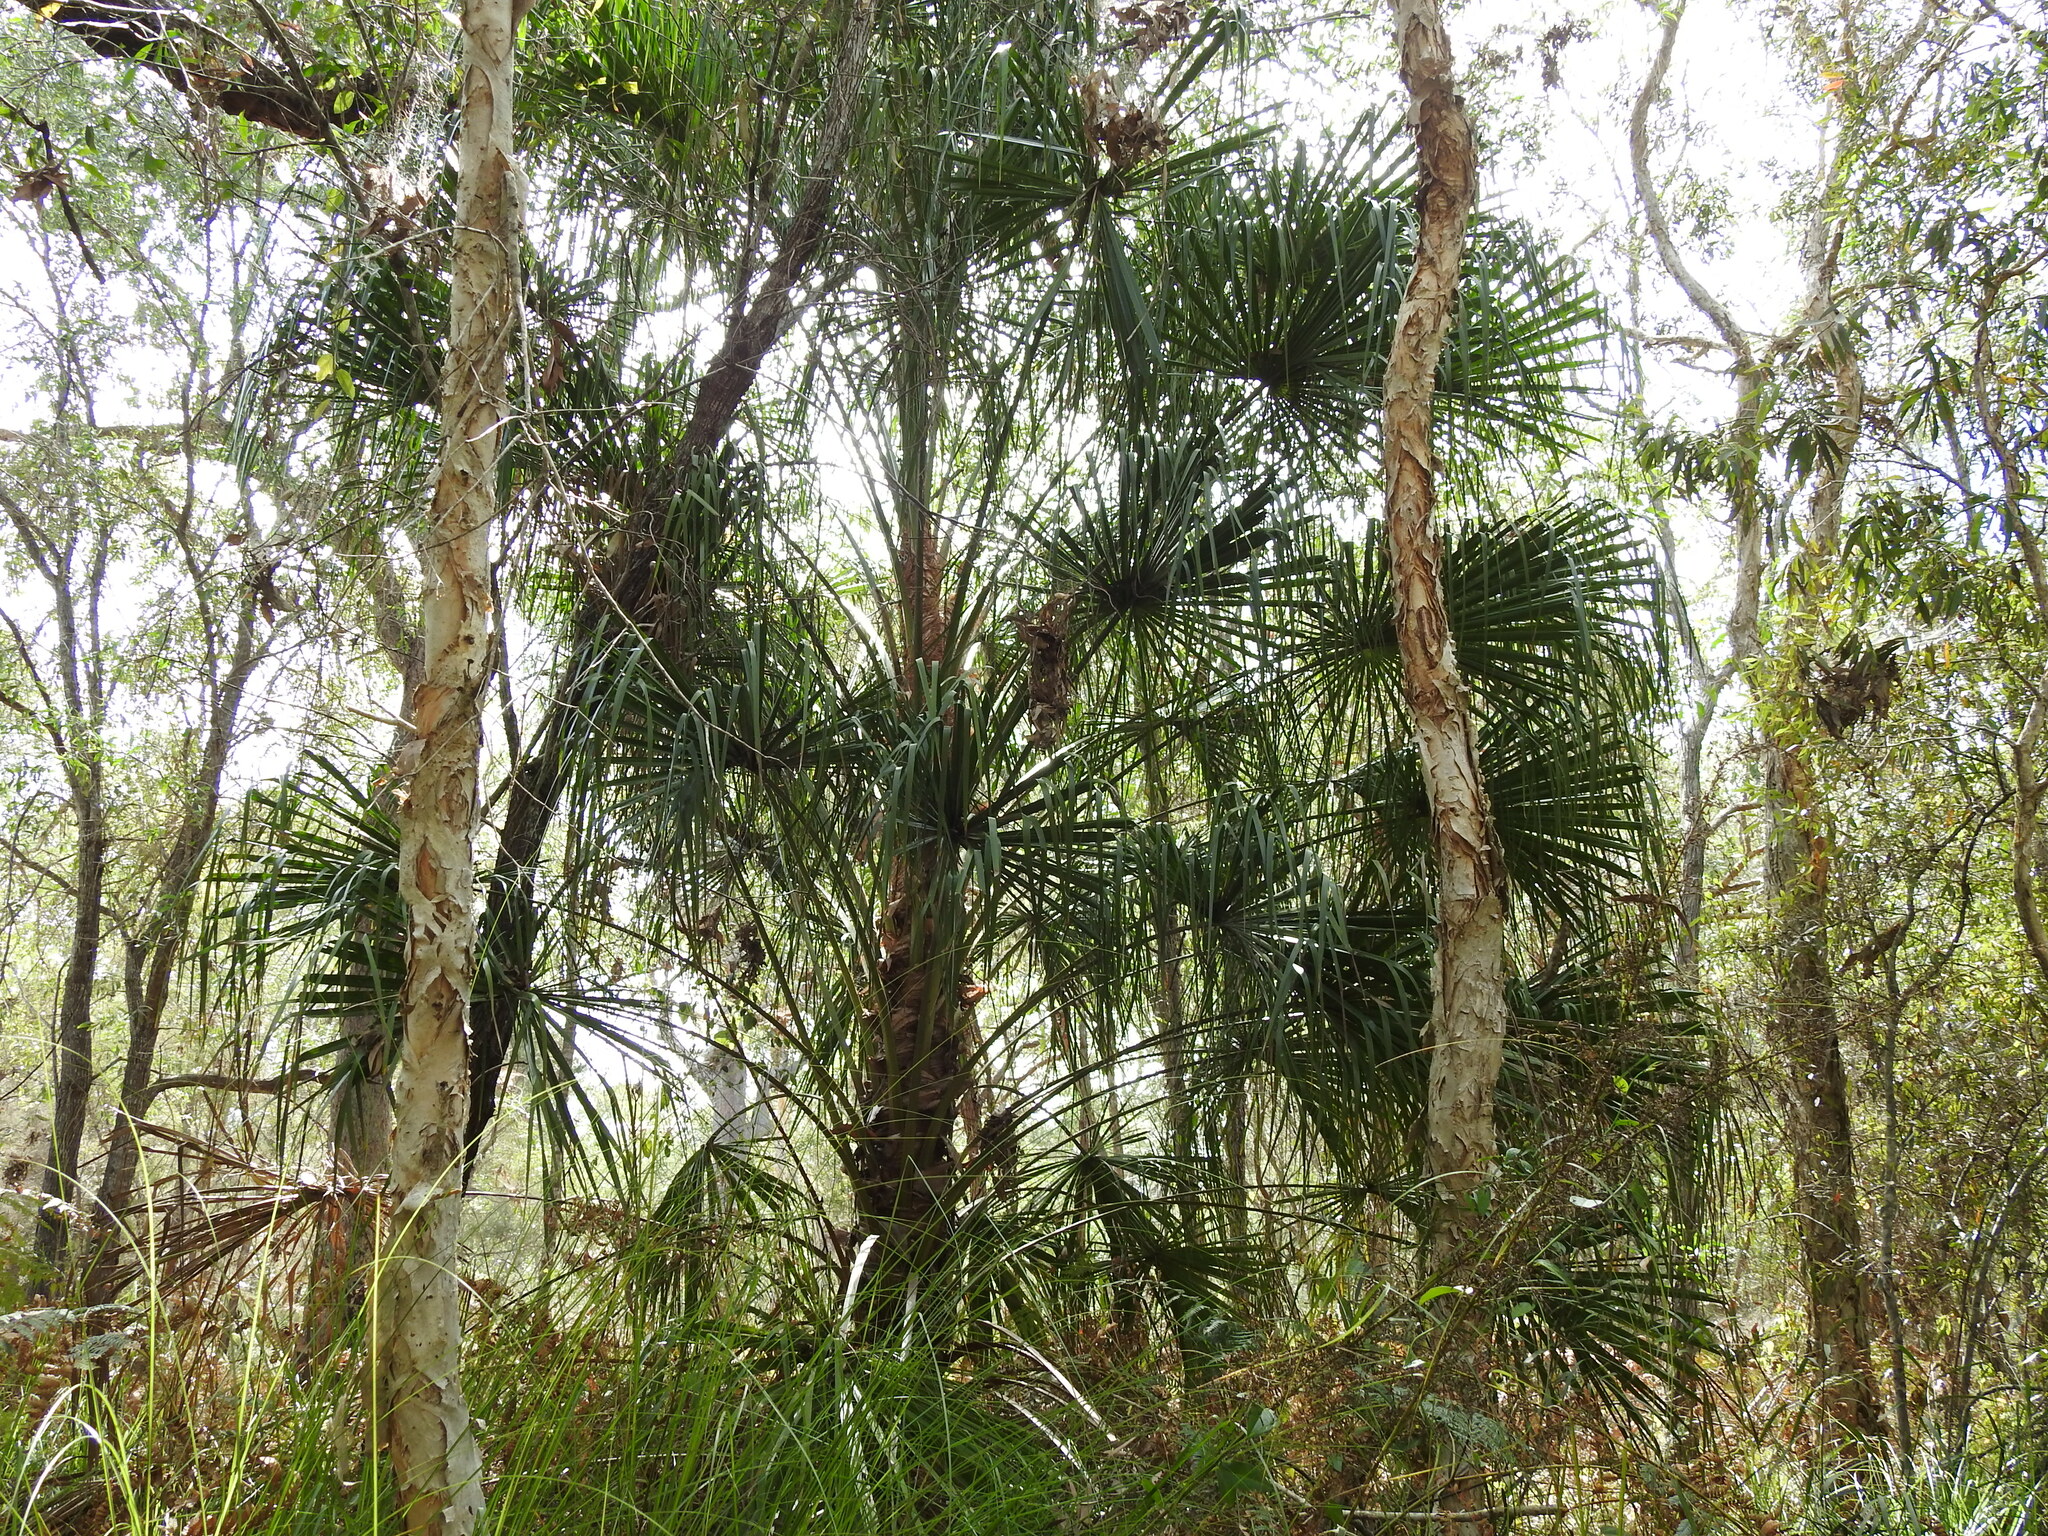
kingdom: Plantae
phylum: Tracheophyta
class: Liliopsida
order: Arecales
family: Arecaceae
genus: Livistona
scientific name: Livistona decora
